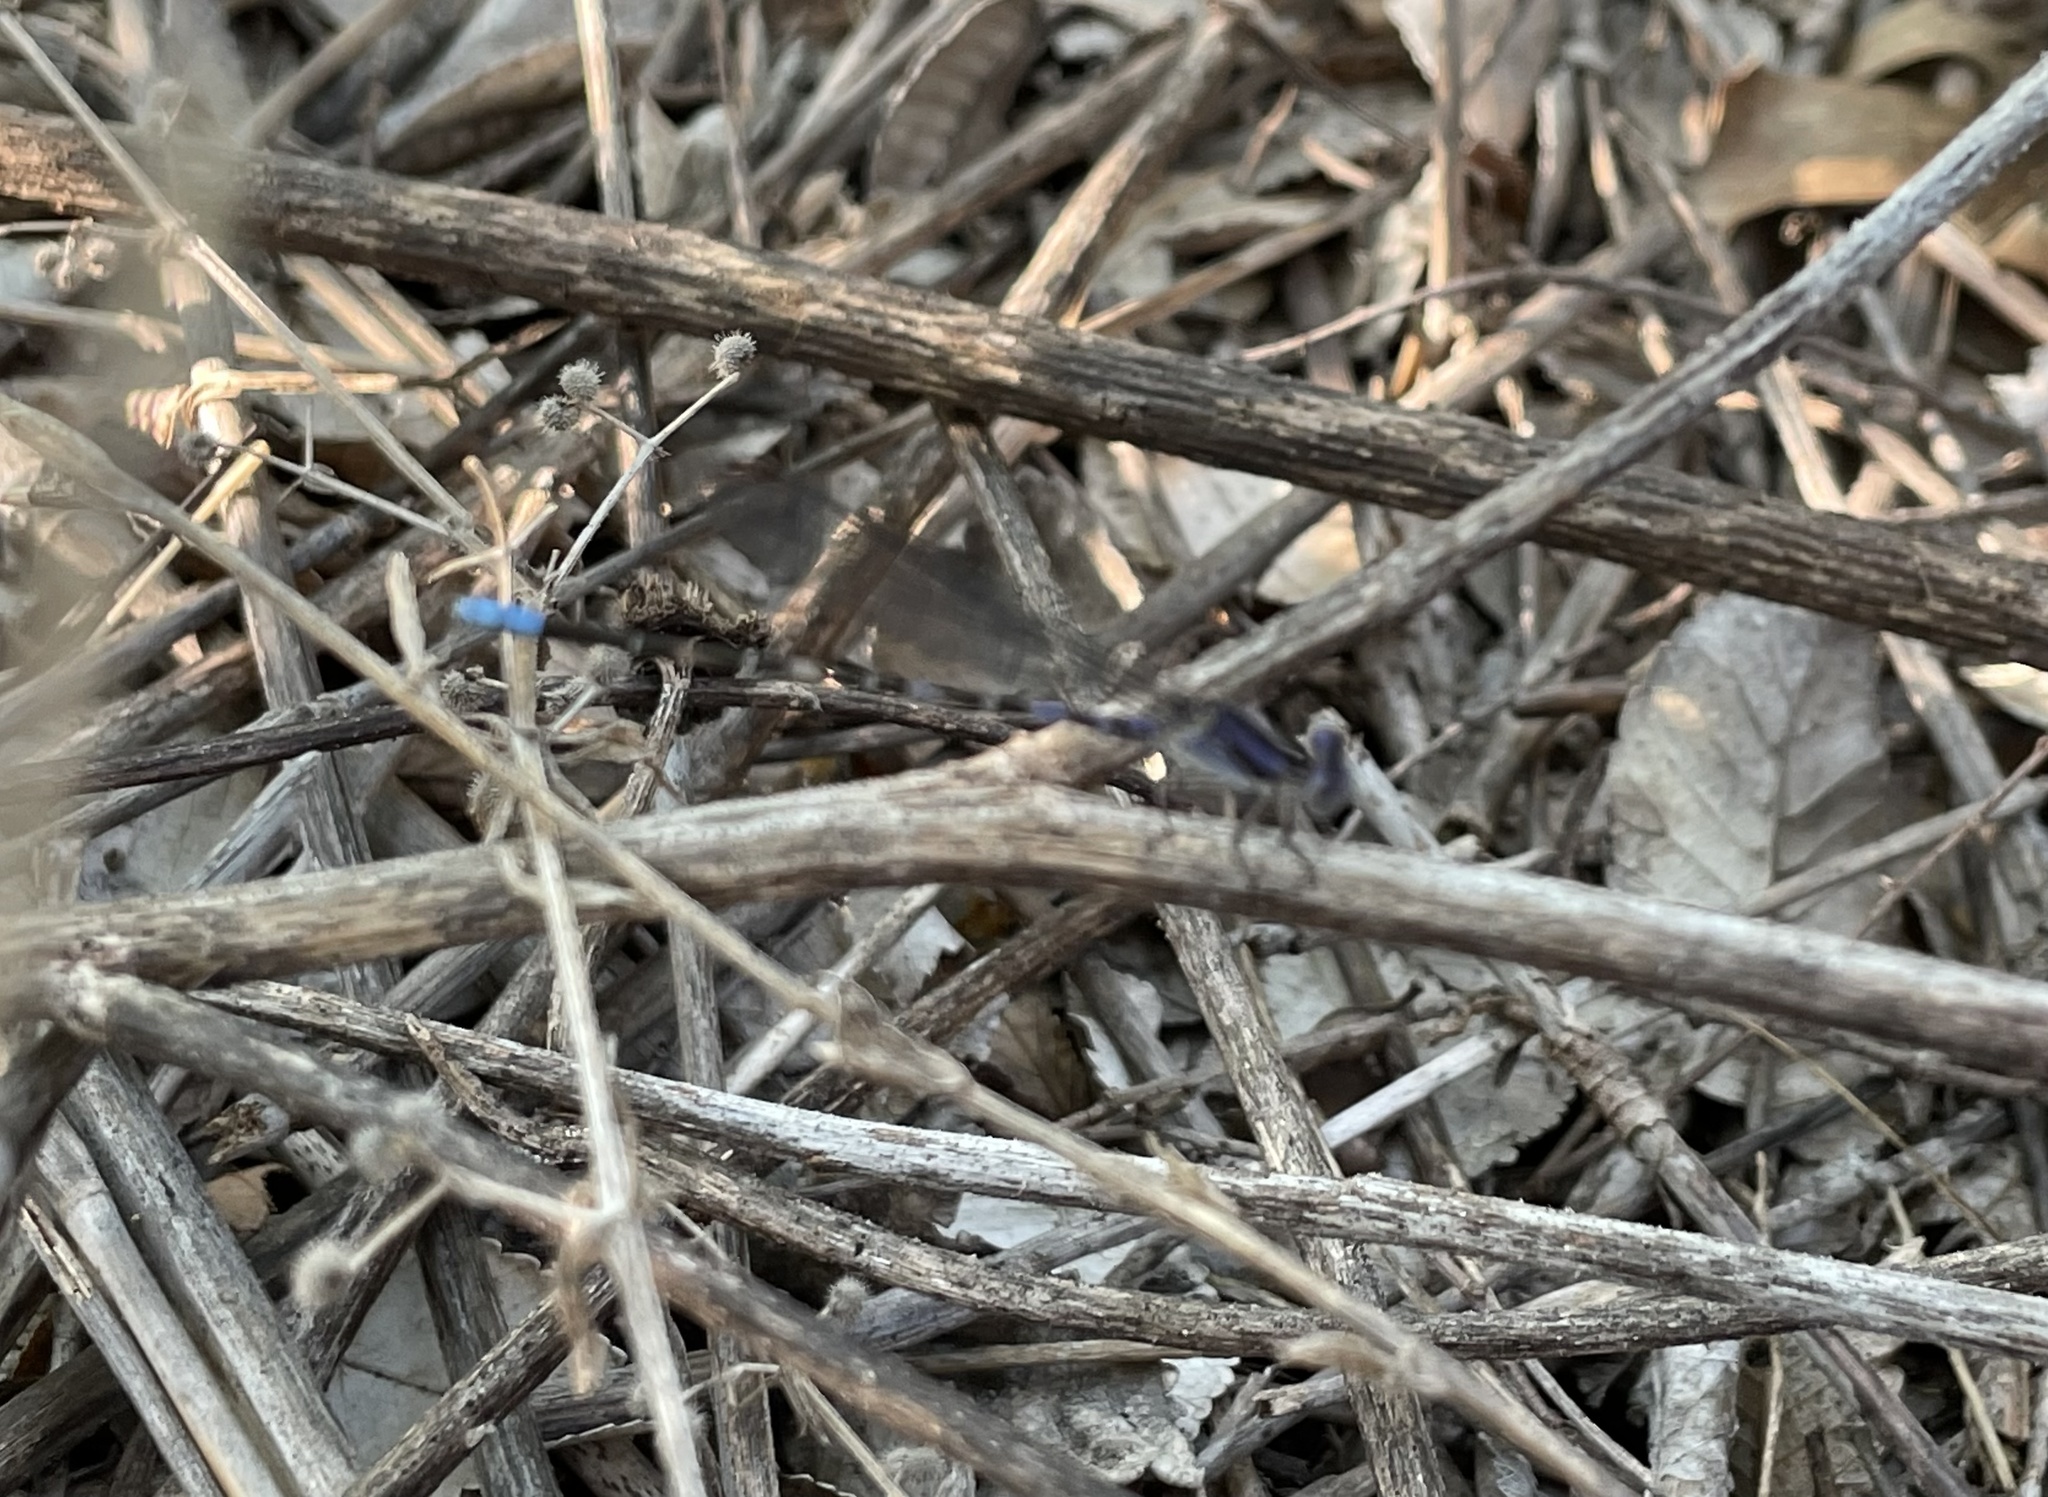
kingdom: Animalia
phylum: Arthropoda
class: Insecta
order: Odonata
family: Coenagrionidae
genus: Argia
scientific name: Argia immunda
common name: Kiowa dancer
